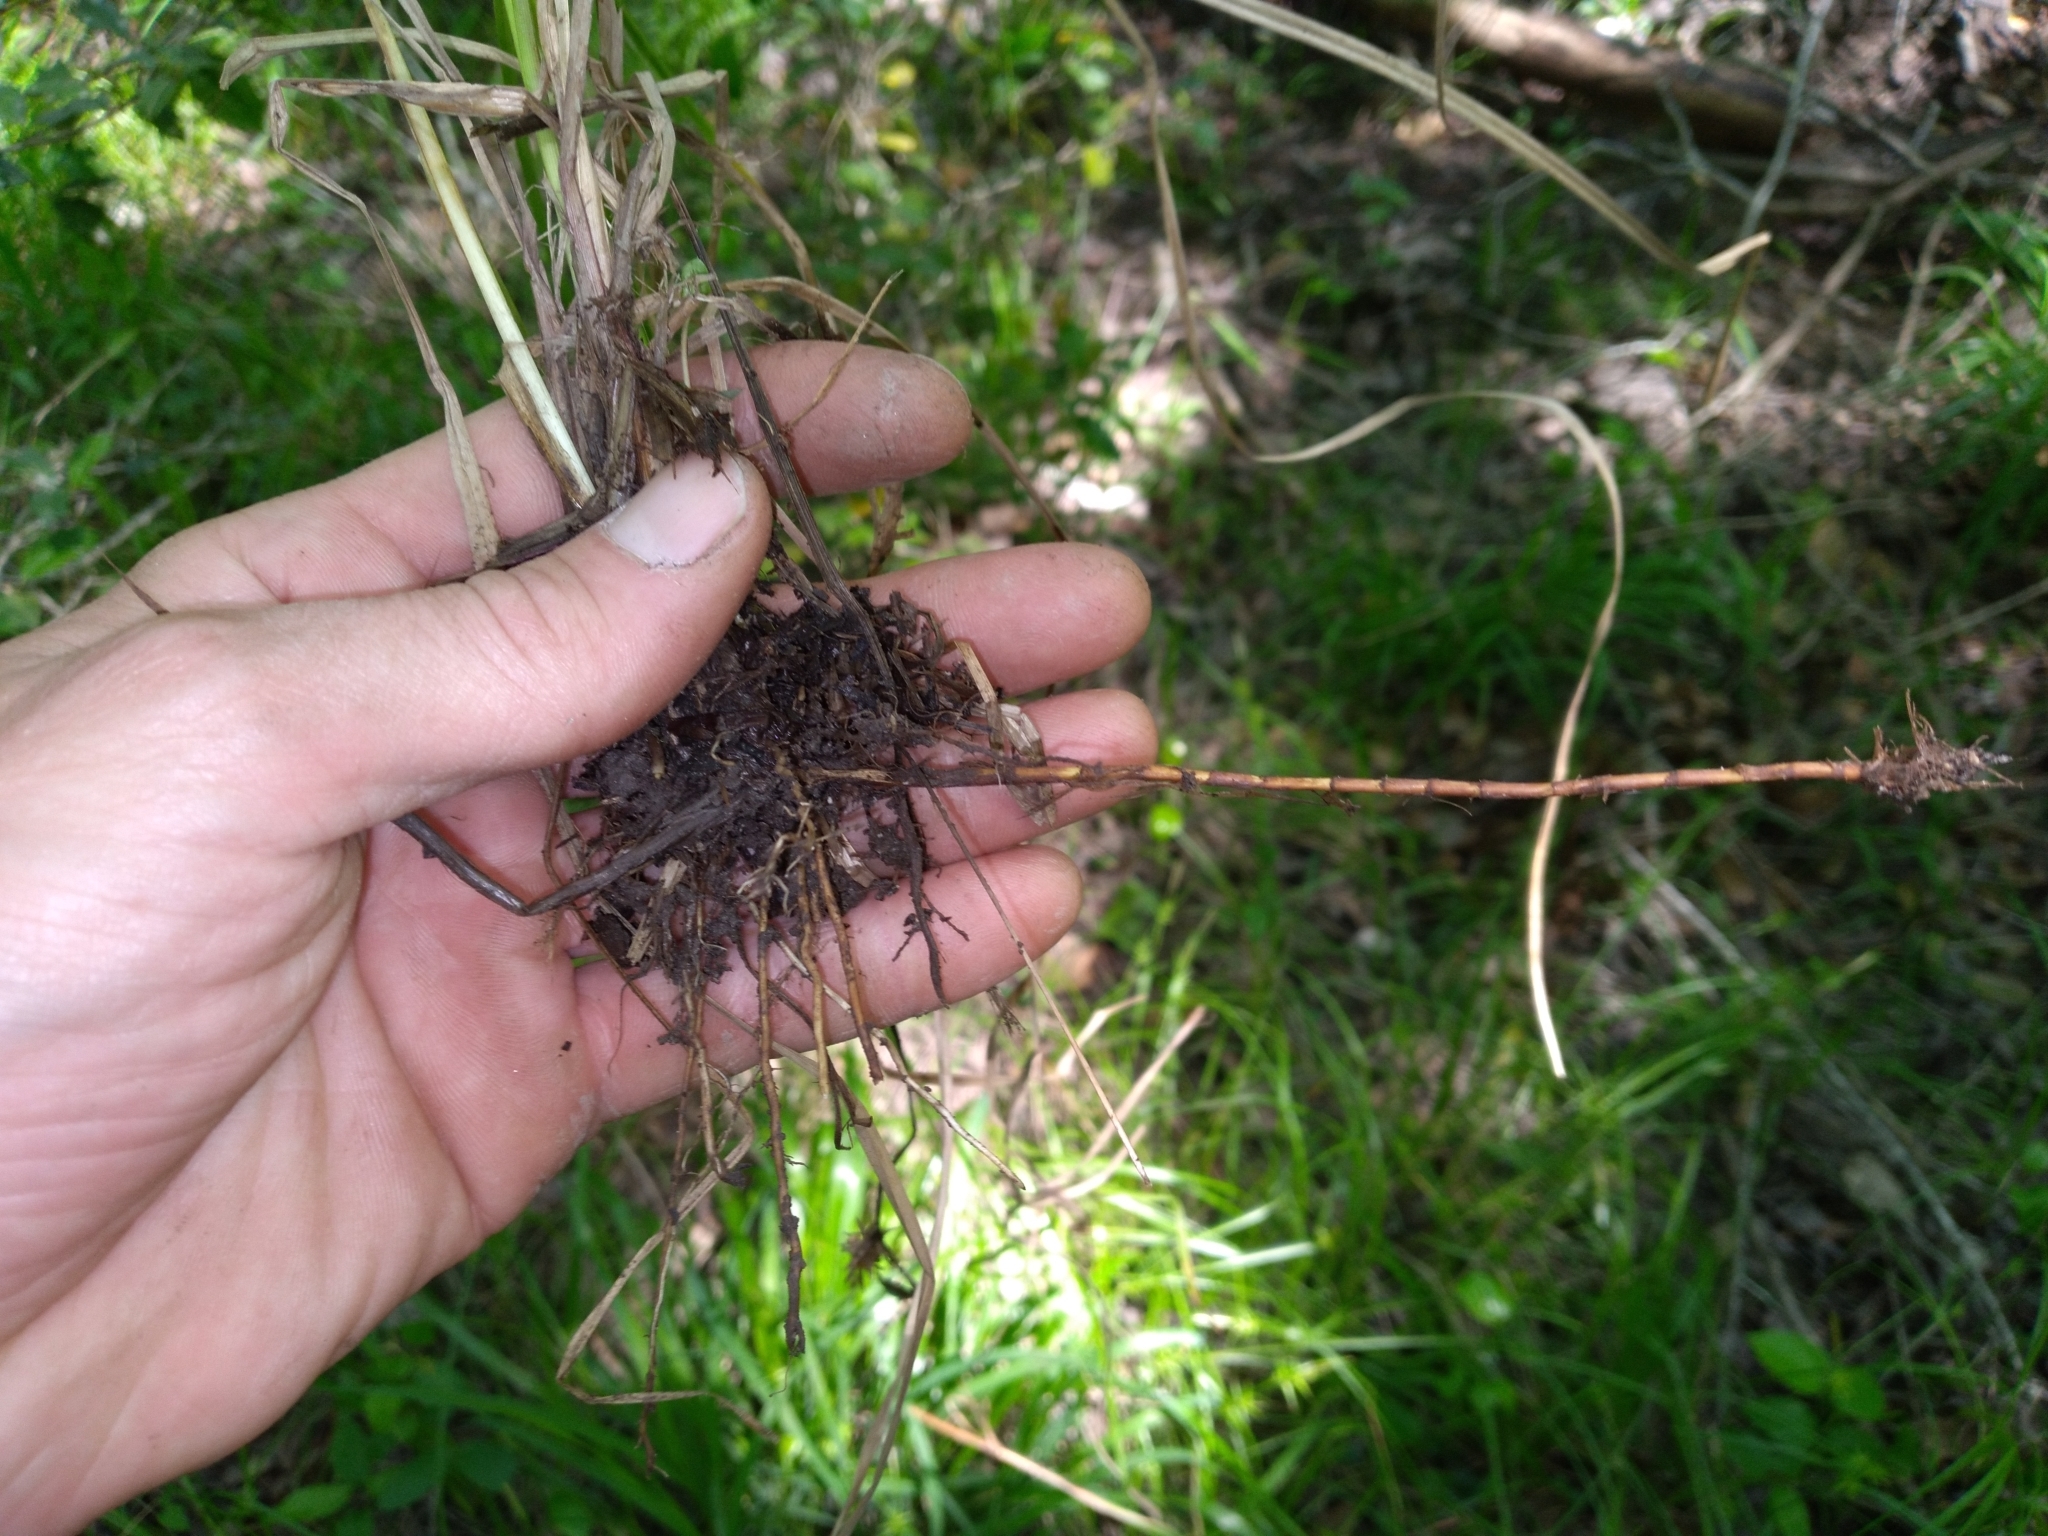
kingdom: Plantae
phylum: Tracheophyta
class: Liliopsida
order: Poales
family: Cyperaceae
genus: Carex
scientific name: Carex louisianica
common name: Louisiana sedge
